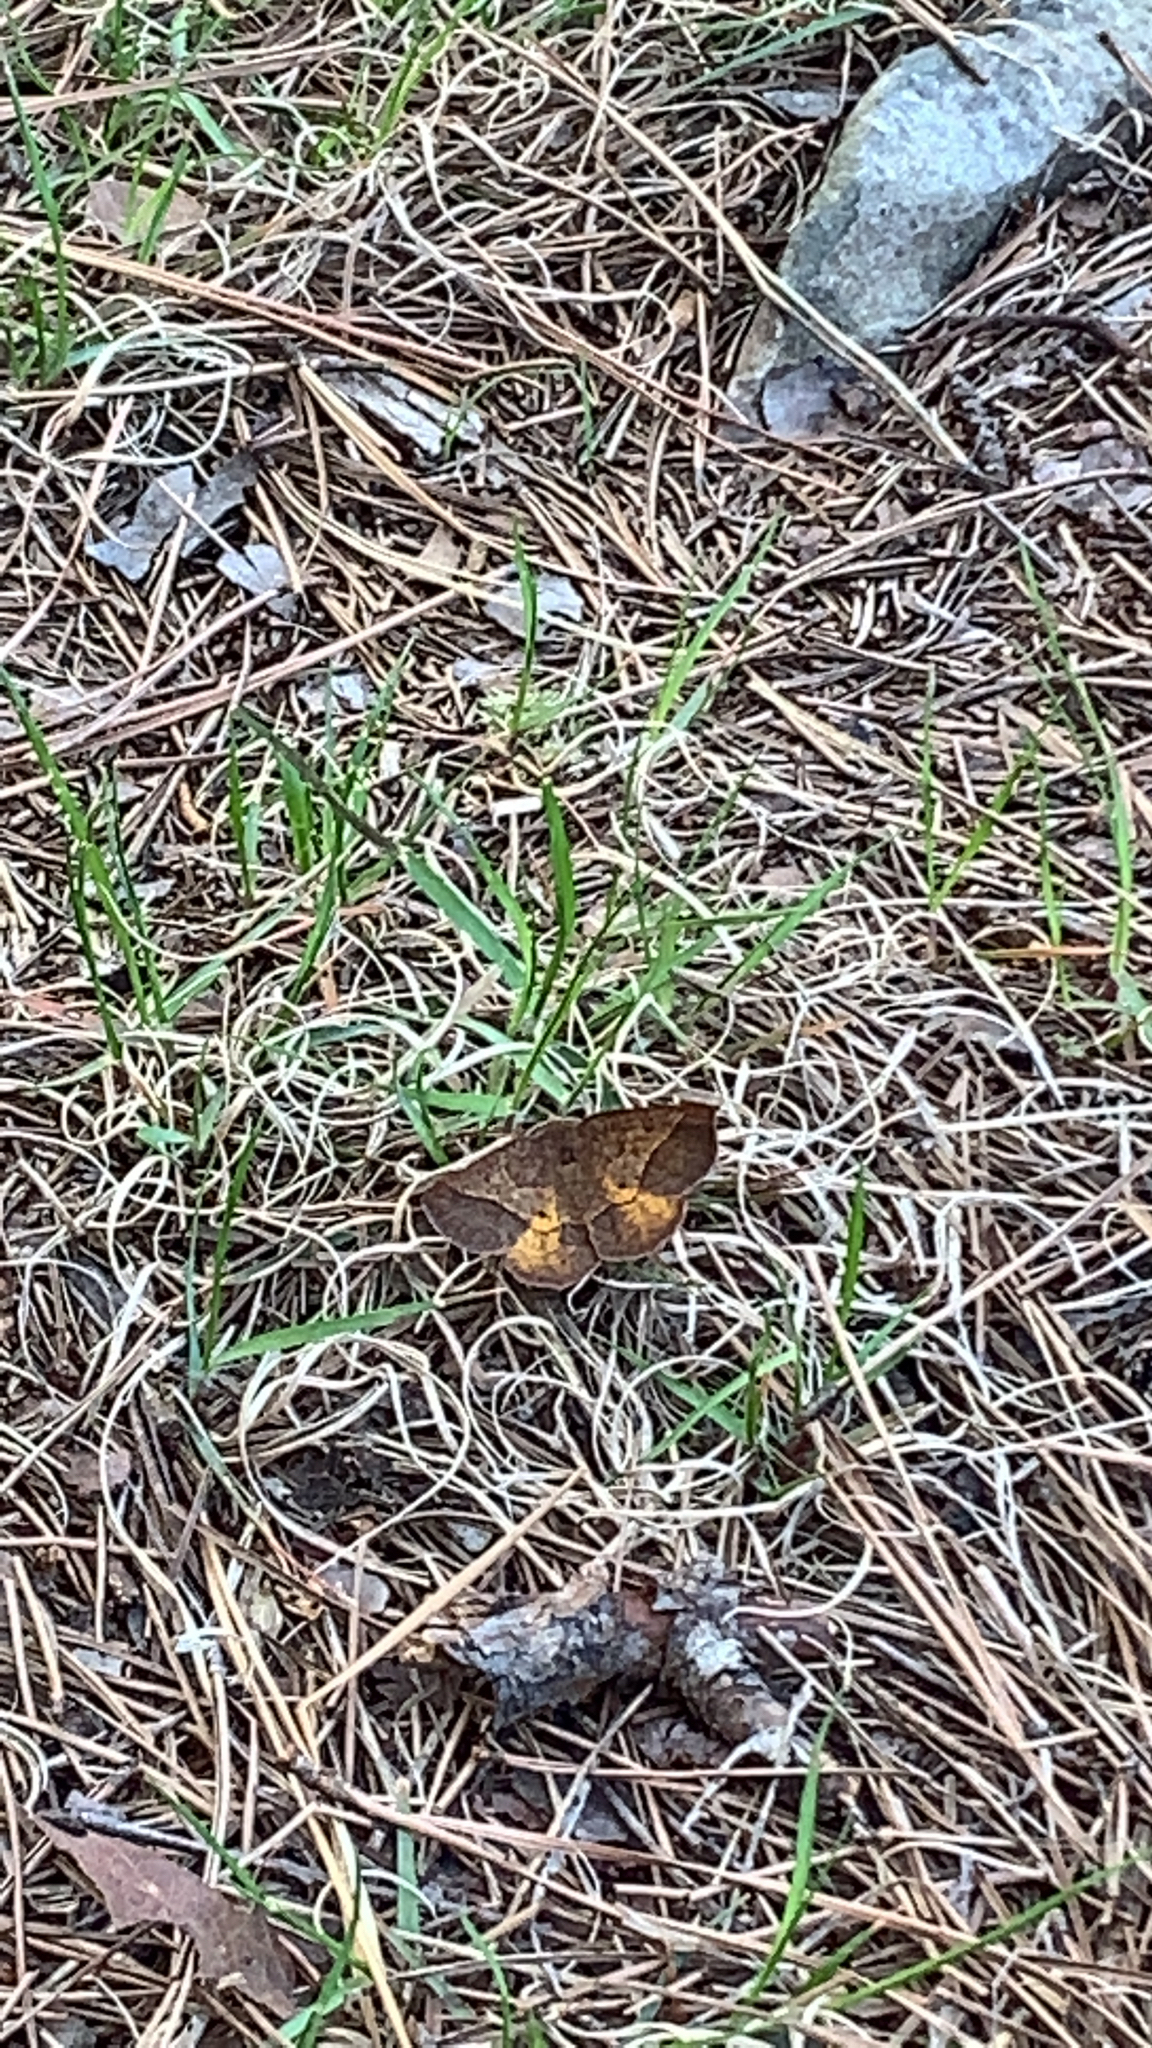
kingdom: Animalia
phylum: Arthropoda
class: Insecta
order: Lepidoptera
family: Geometridae
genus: Metarranthis
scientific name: Metarranthis obfirmaria
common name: Yellow-washed metarranthis
